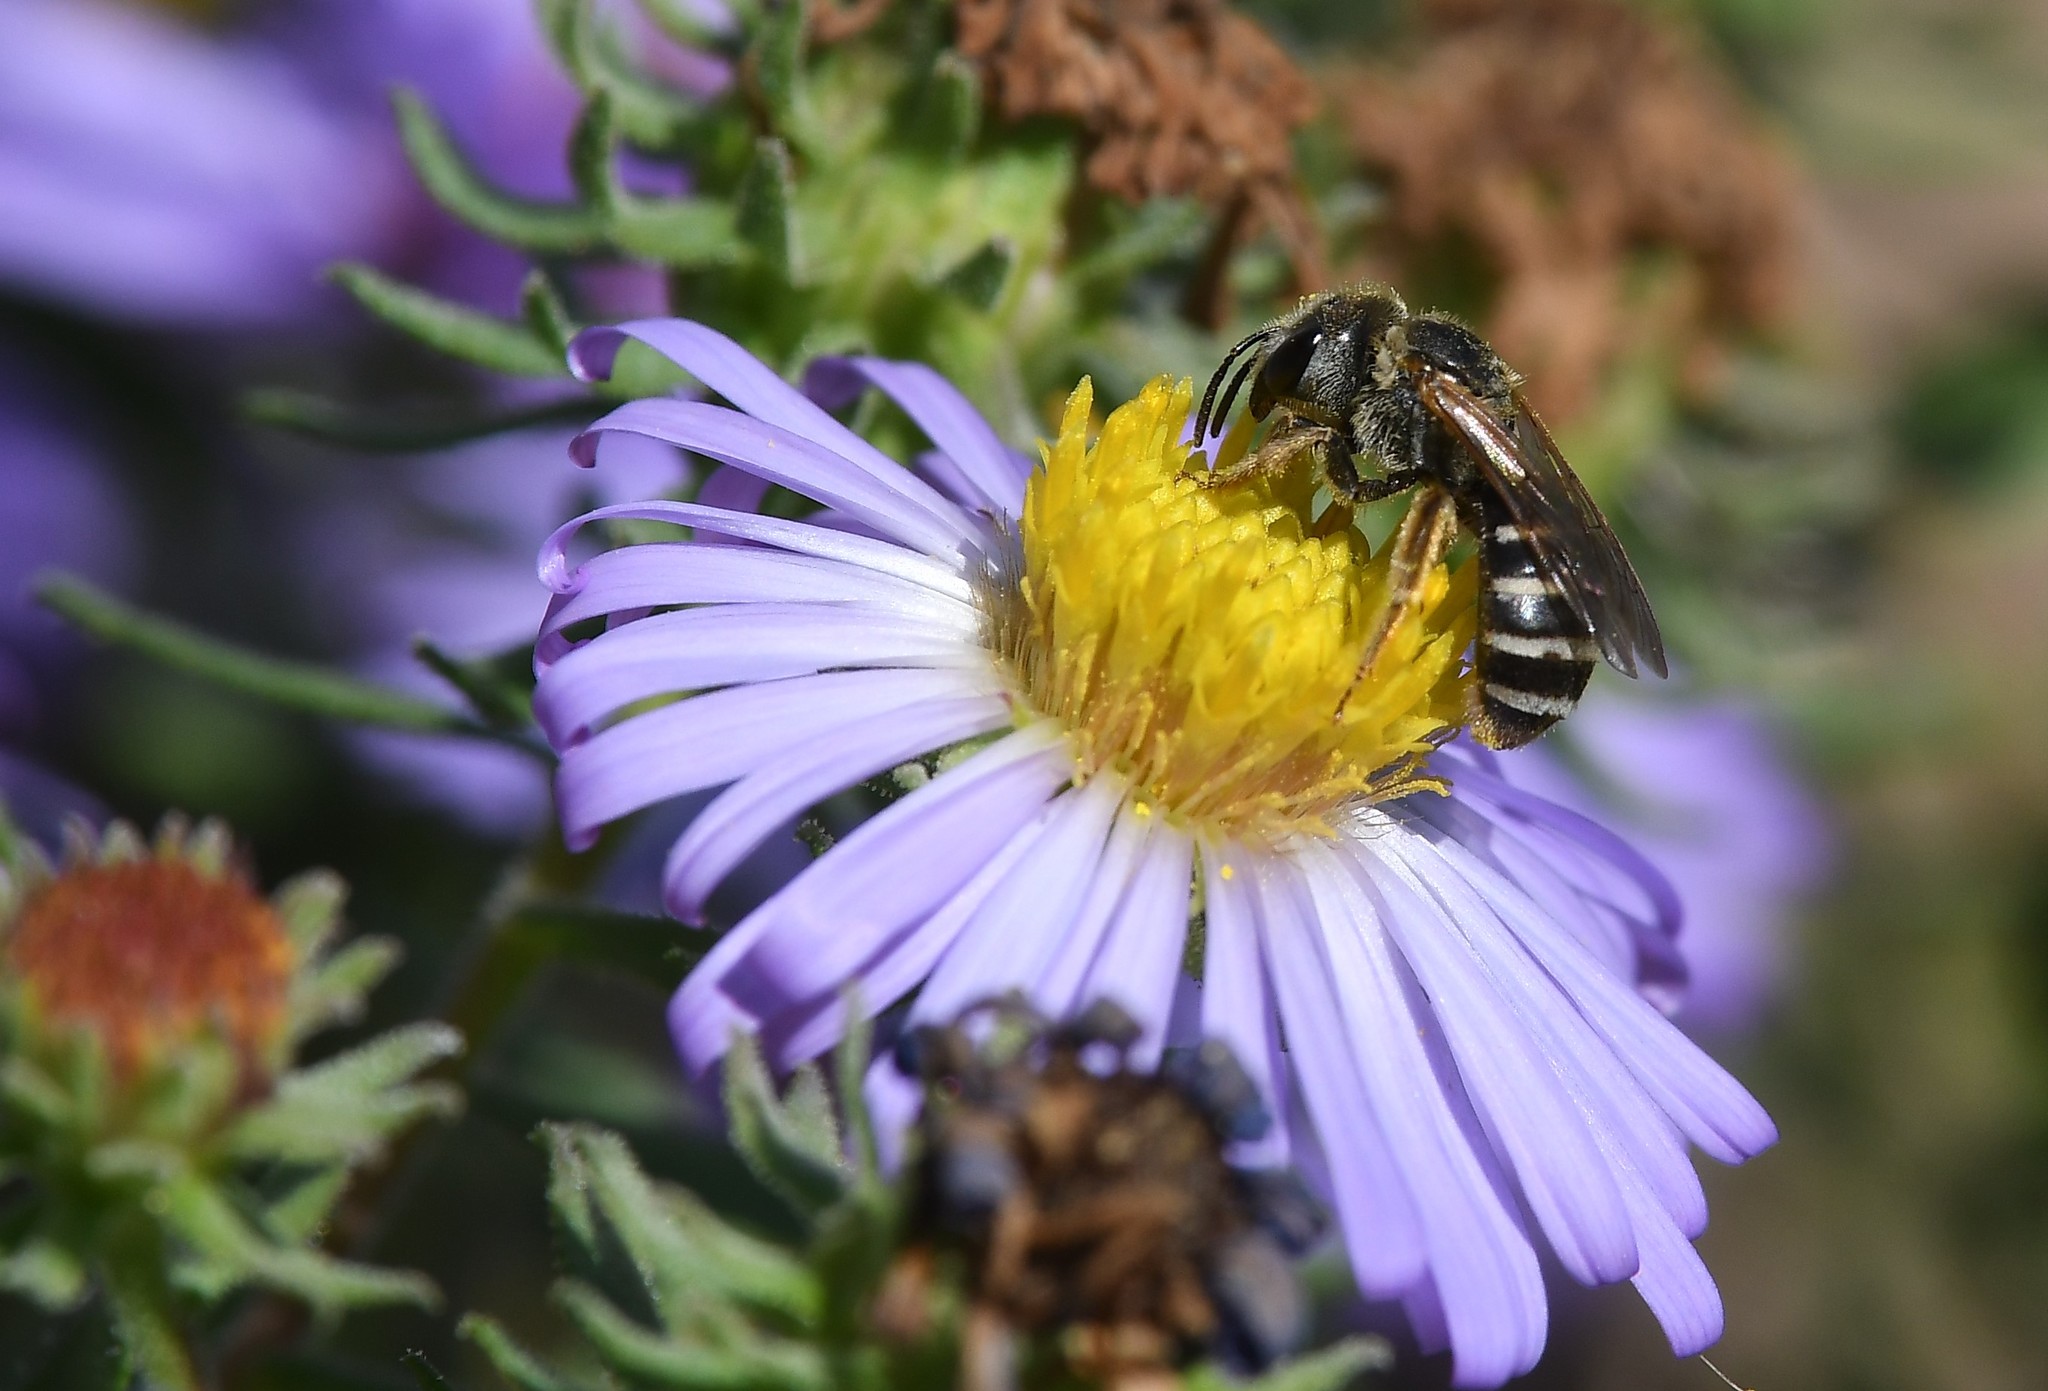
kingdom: Animalia
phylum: Arthropoda
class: Insecta
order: Hymenoptera
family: Halictidae
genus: Halictus
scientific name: Halictus ligatus
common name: Ligated furrow bee
